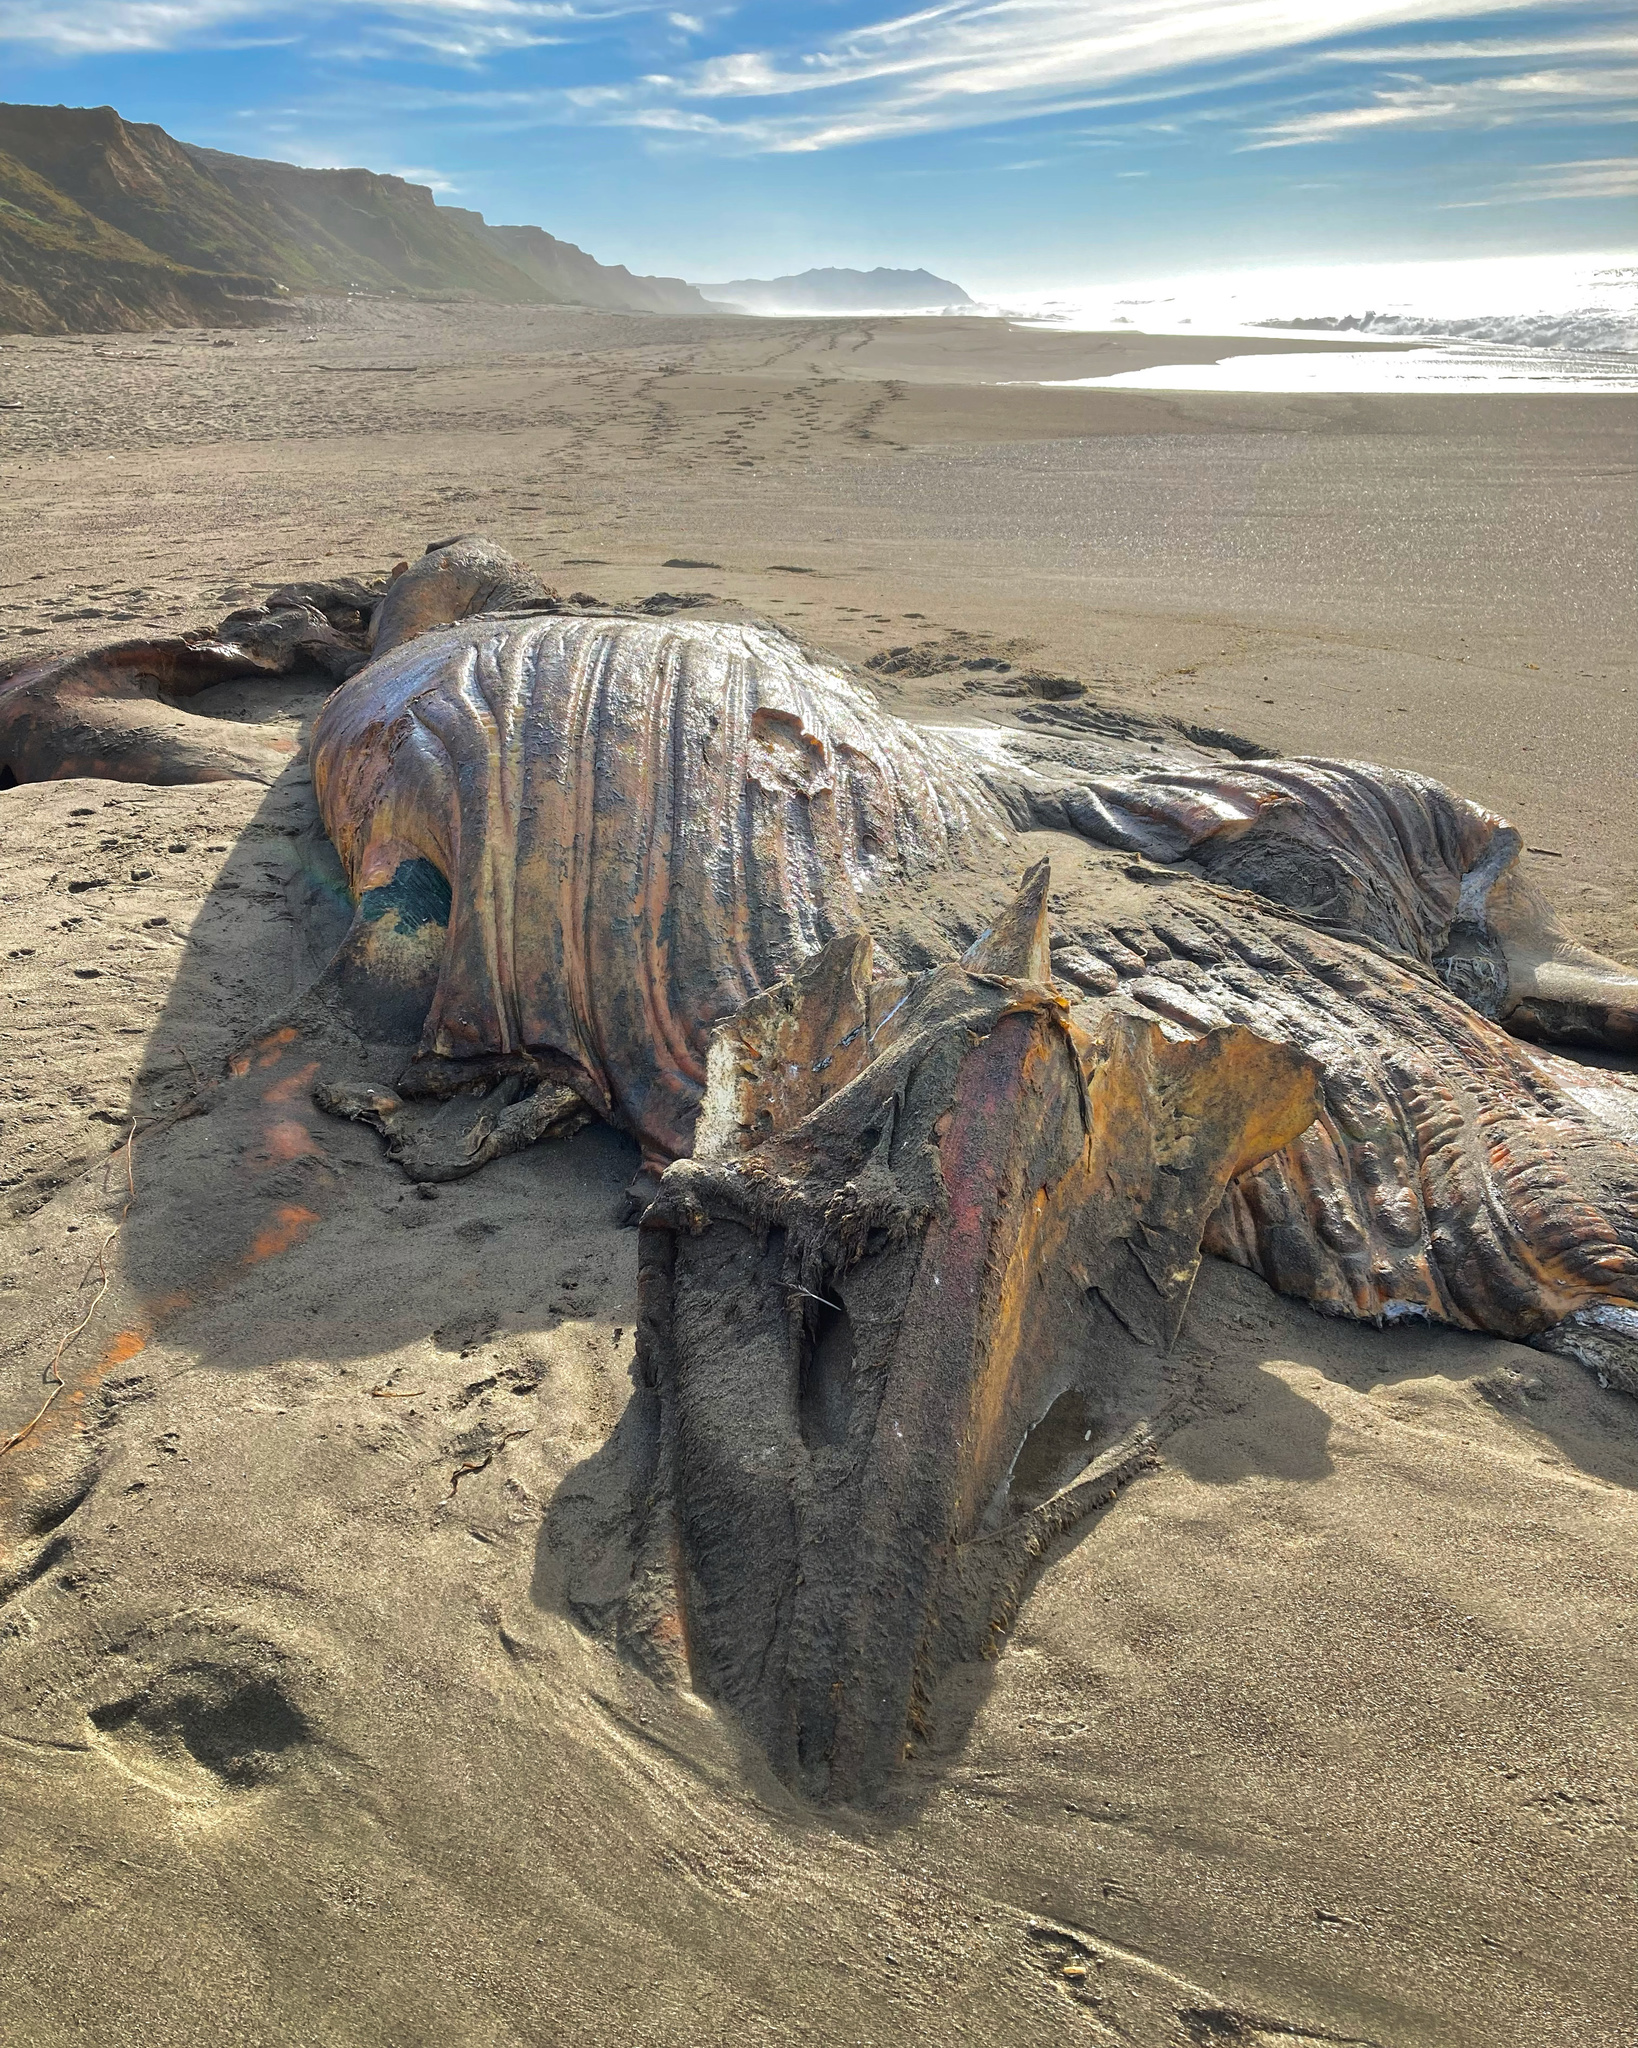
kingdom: Animalia
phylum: Chordata
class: Mammalia
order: Cetacea
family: Balaenopteridae
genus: Megaptera
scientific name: Megaptera novaeangliae
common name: Humpback whale
